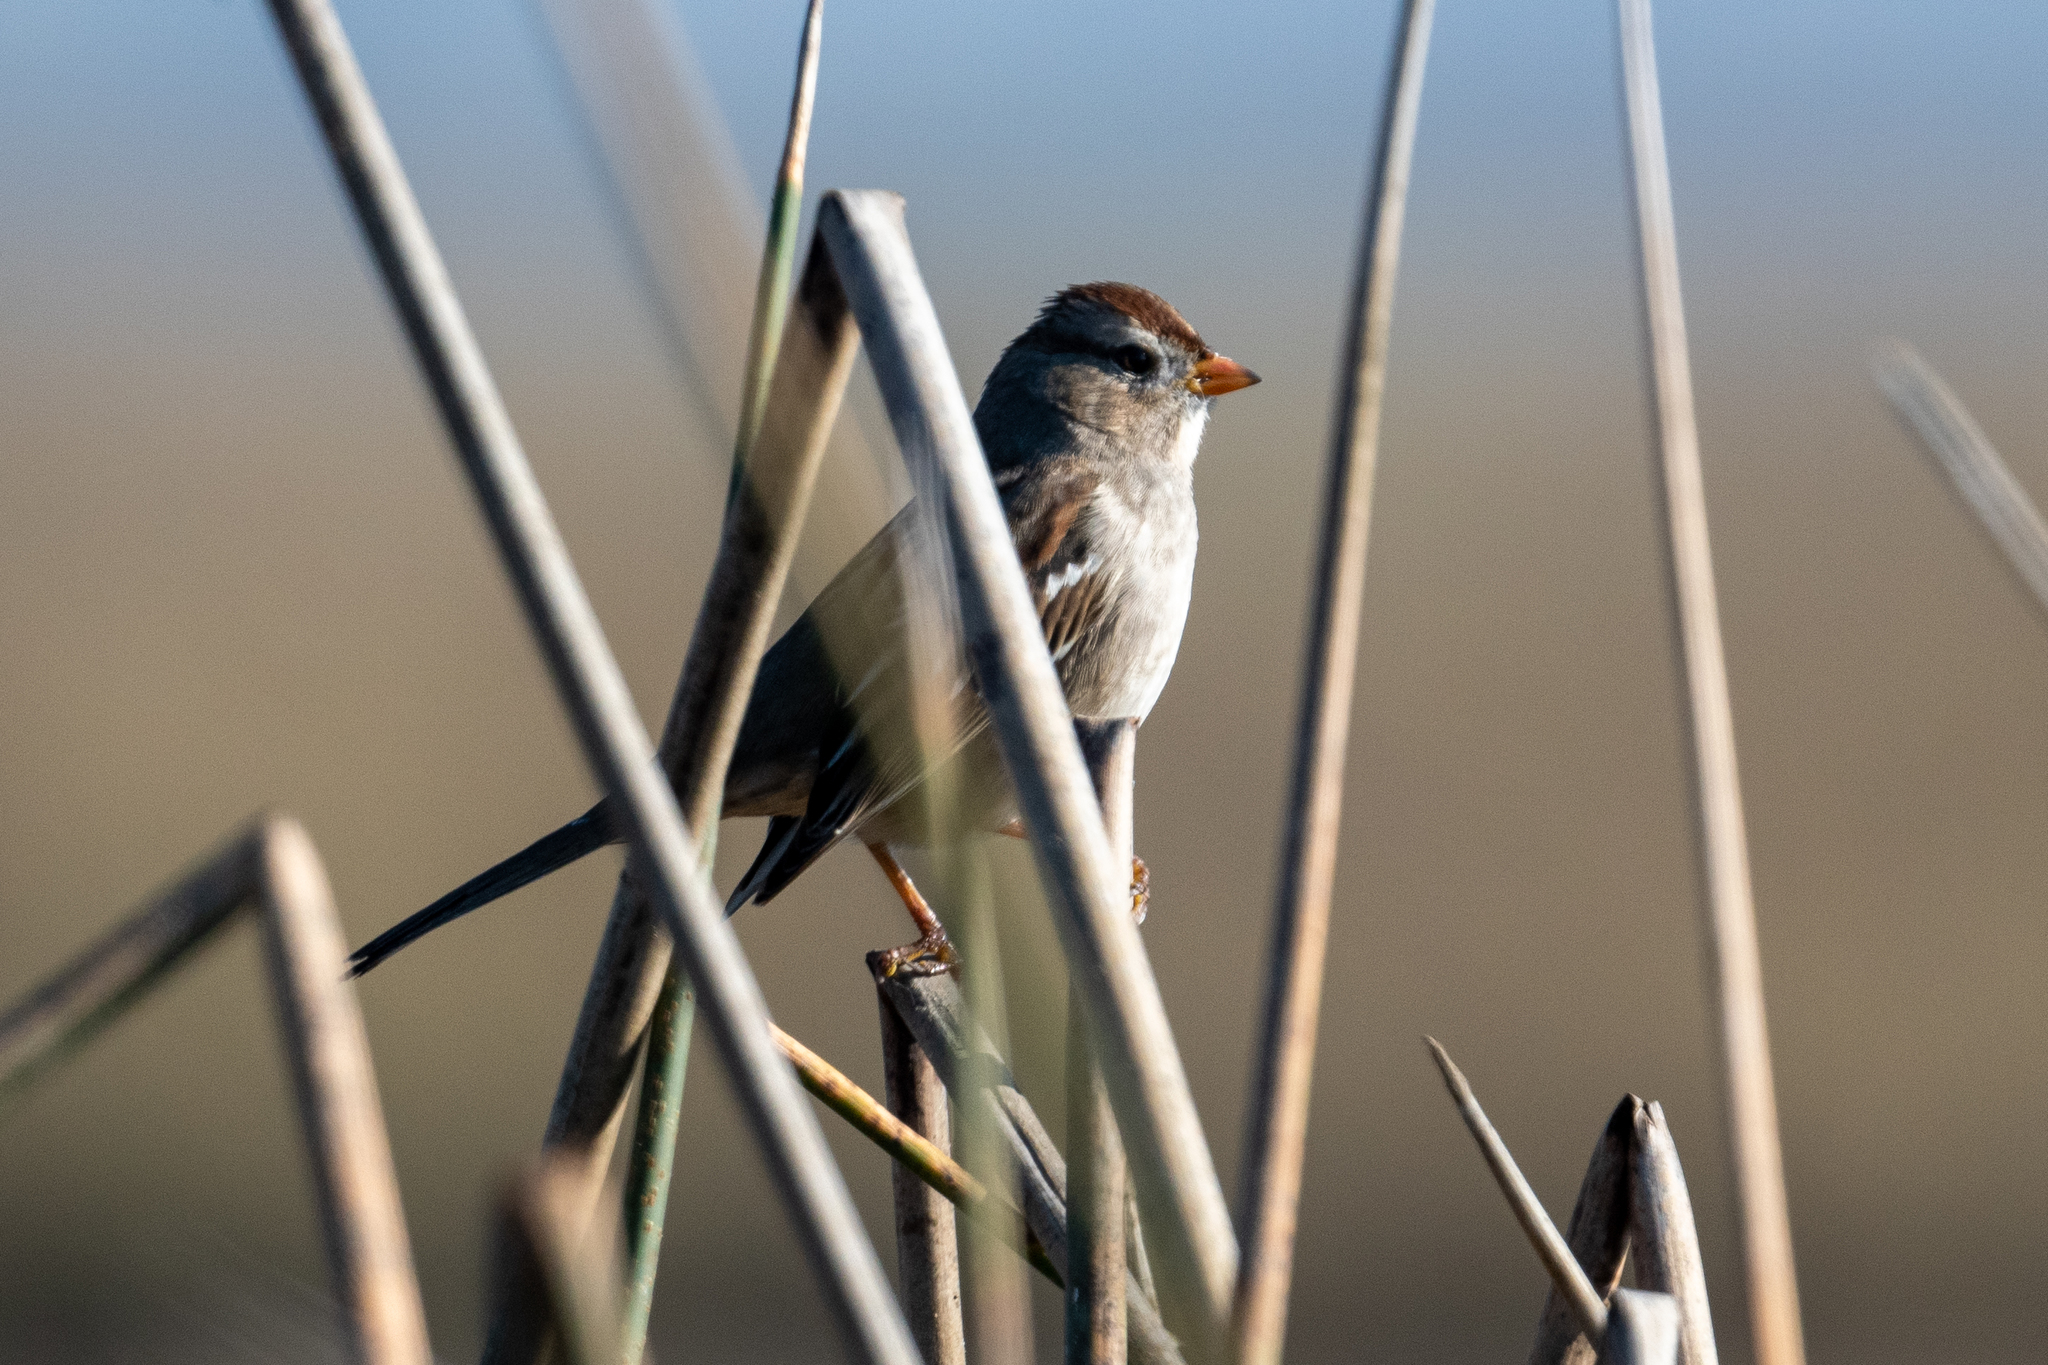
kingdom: Animalia
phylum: Chordata
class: Aves
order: Passeriformes
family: Passerellidae
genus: Zonotrichia
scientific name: Zonotrichia leucophrys
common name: White-crowned sparrow
